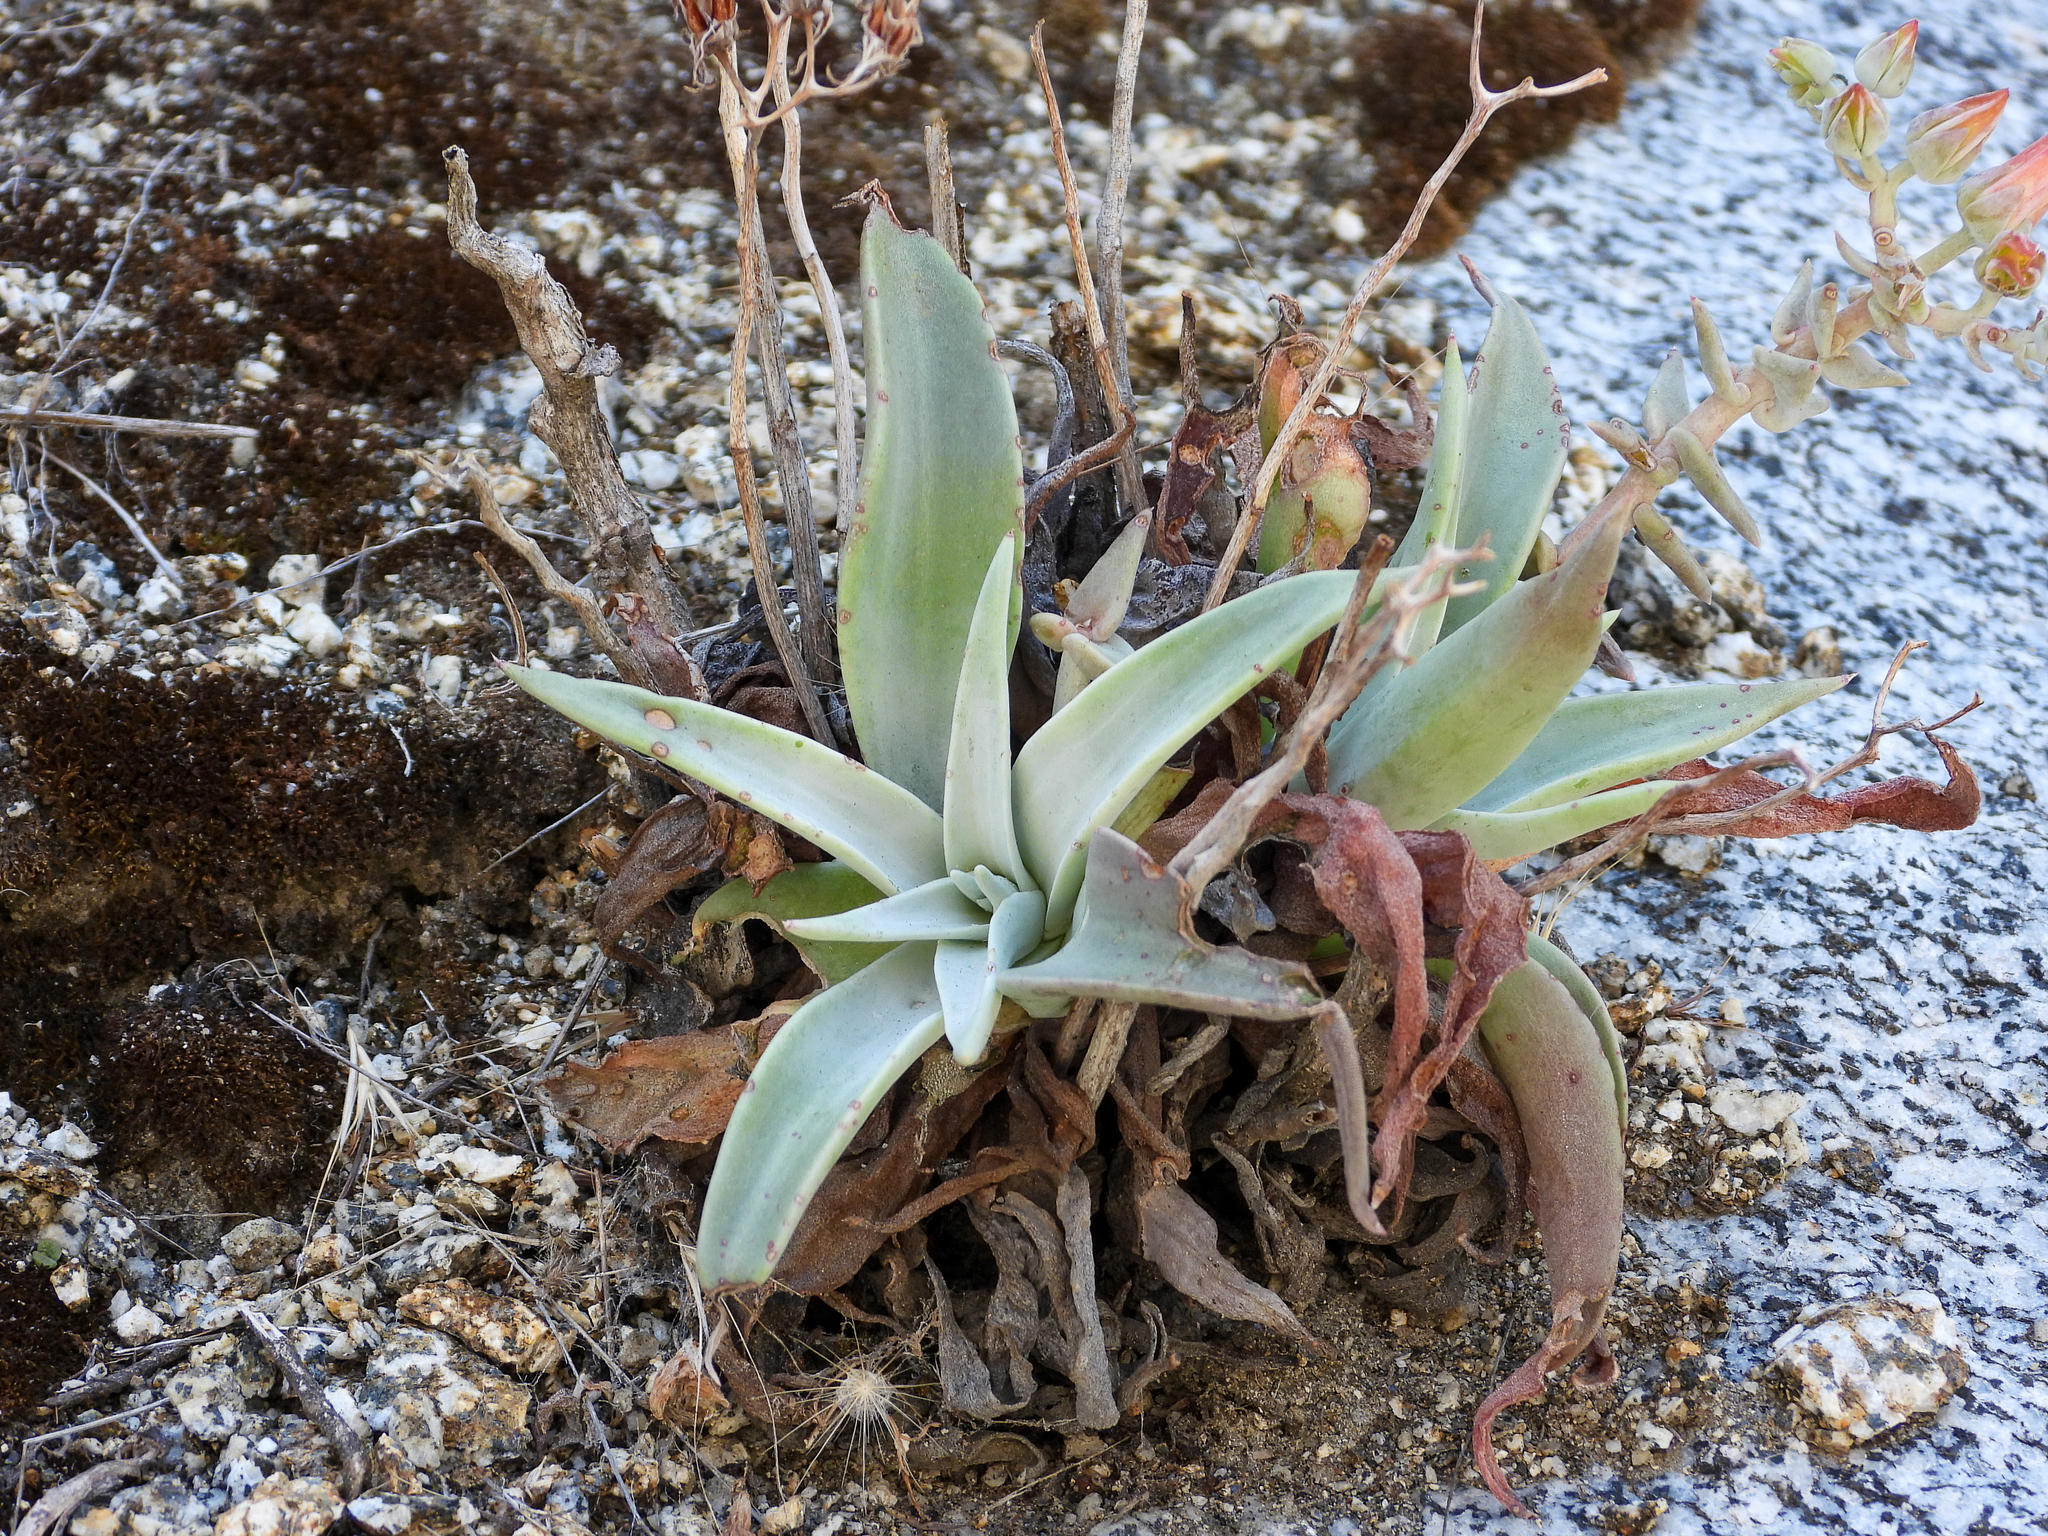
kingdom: Plantae
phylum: Tracheophyta
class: Magnoliopsida
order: Saxifragales
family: Crassulaceae
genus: Dudleya
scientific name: Dudleya cymosa
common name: Canyon dudleya
